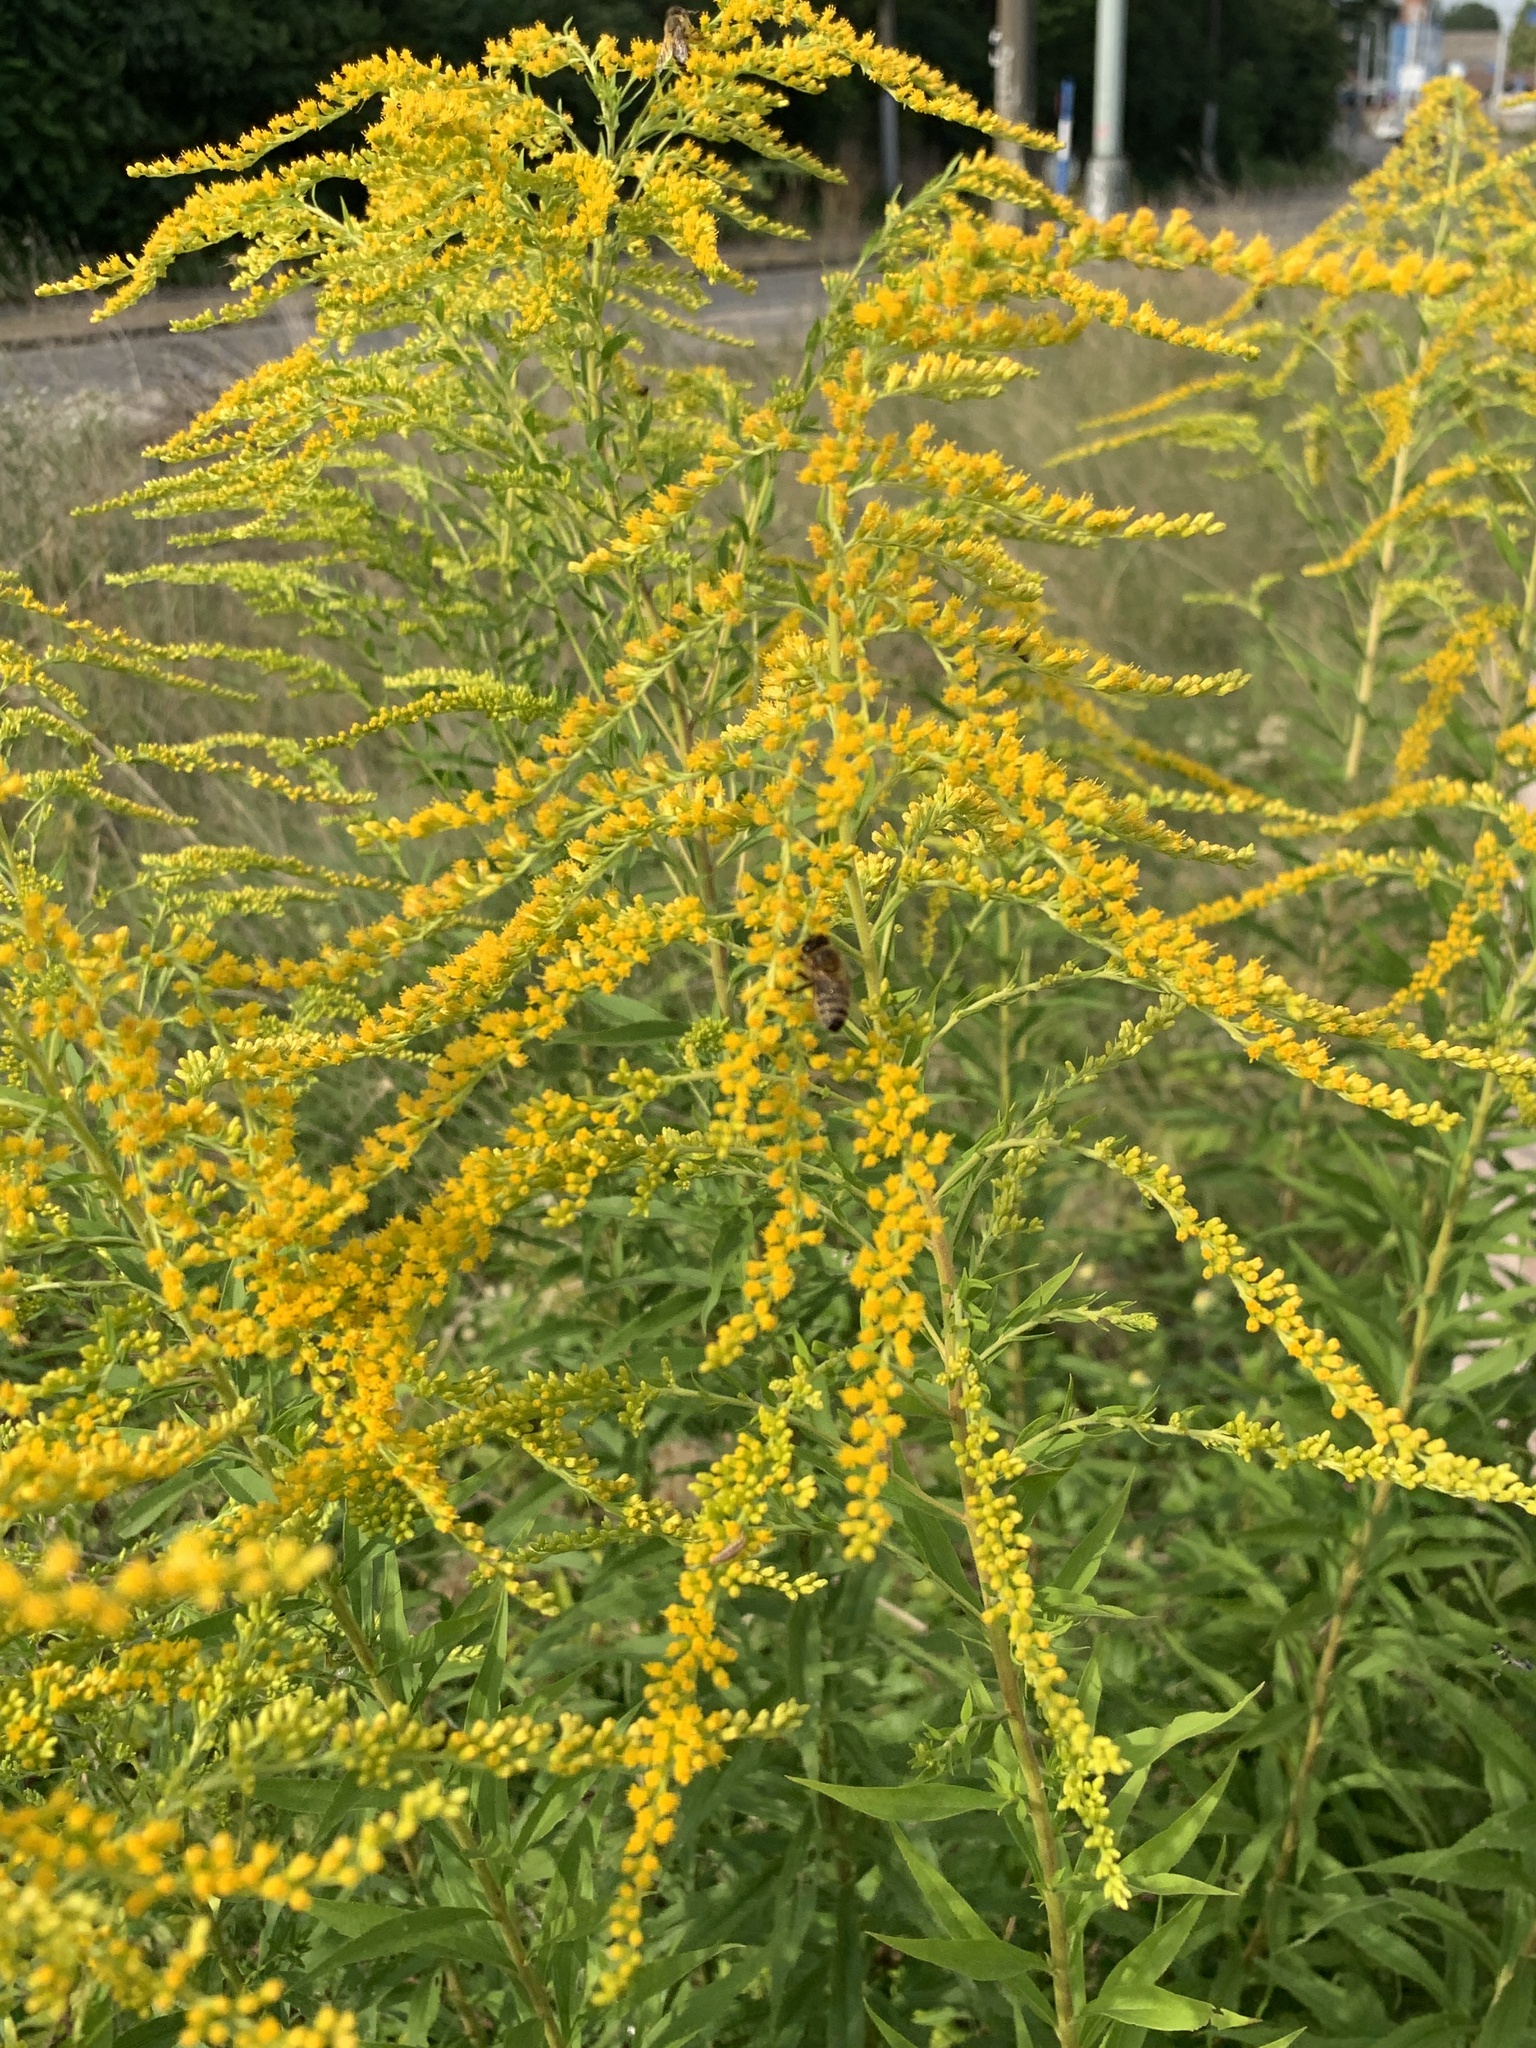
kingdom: Plantae
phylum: Tracheophyta
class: Magnoliopsida
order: Asterales
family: Asteraceae
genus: Solidago
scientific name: Solidago canadensis
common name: Canada goldenrod
